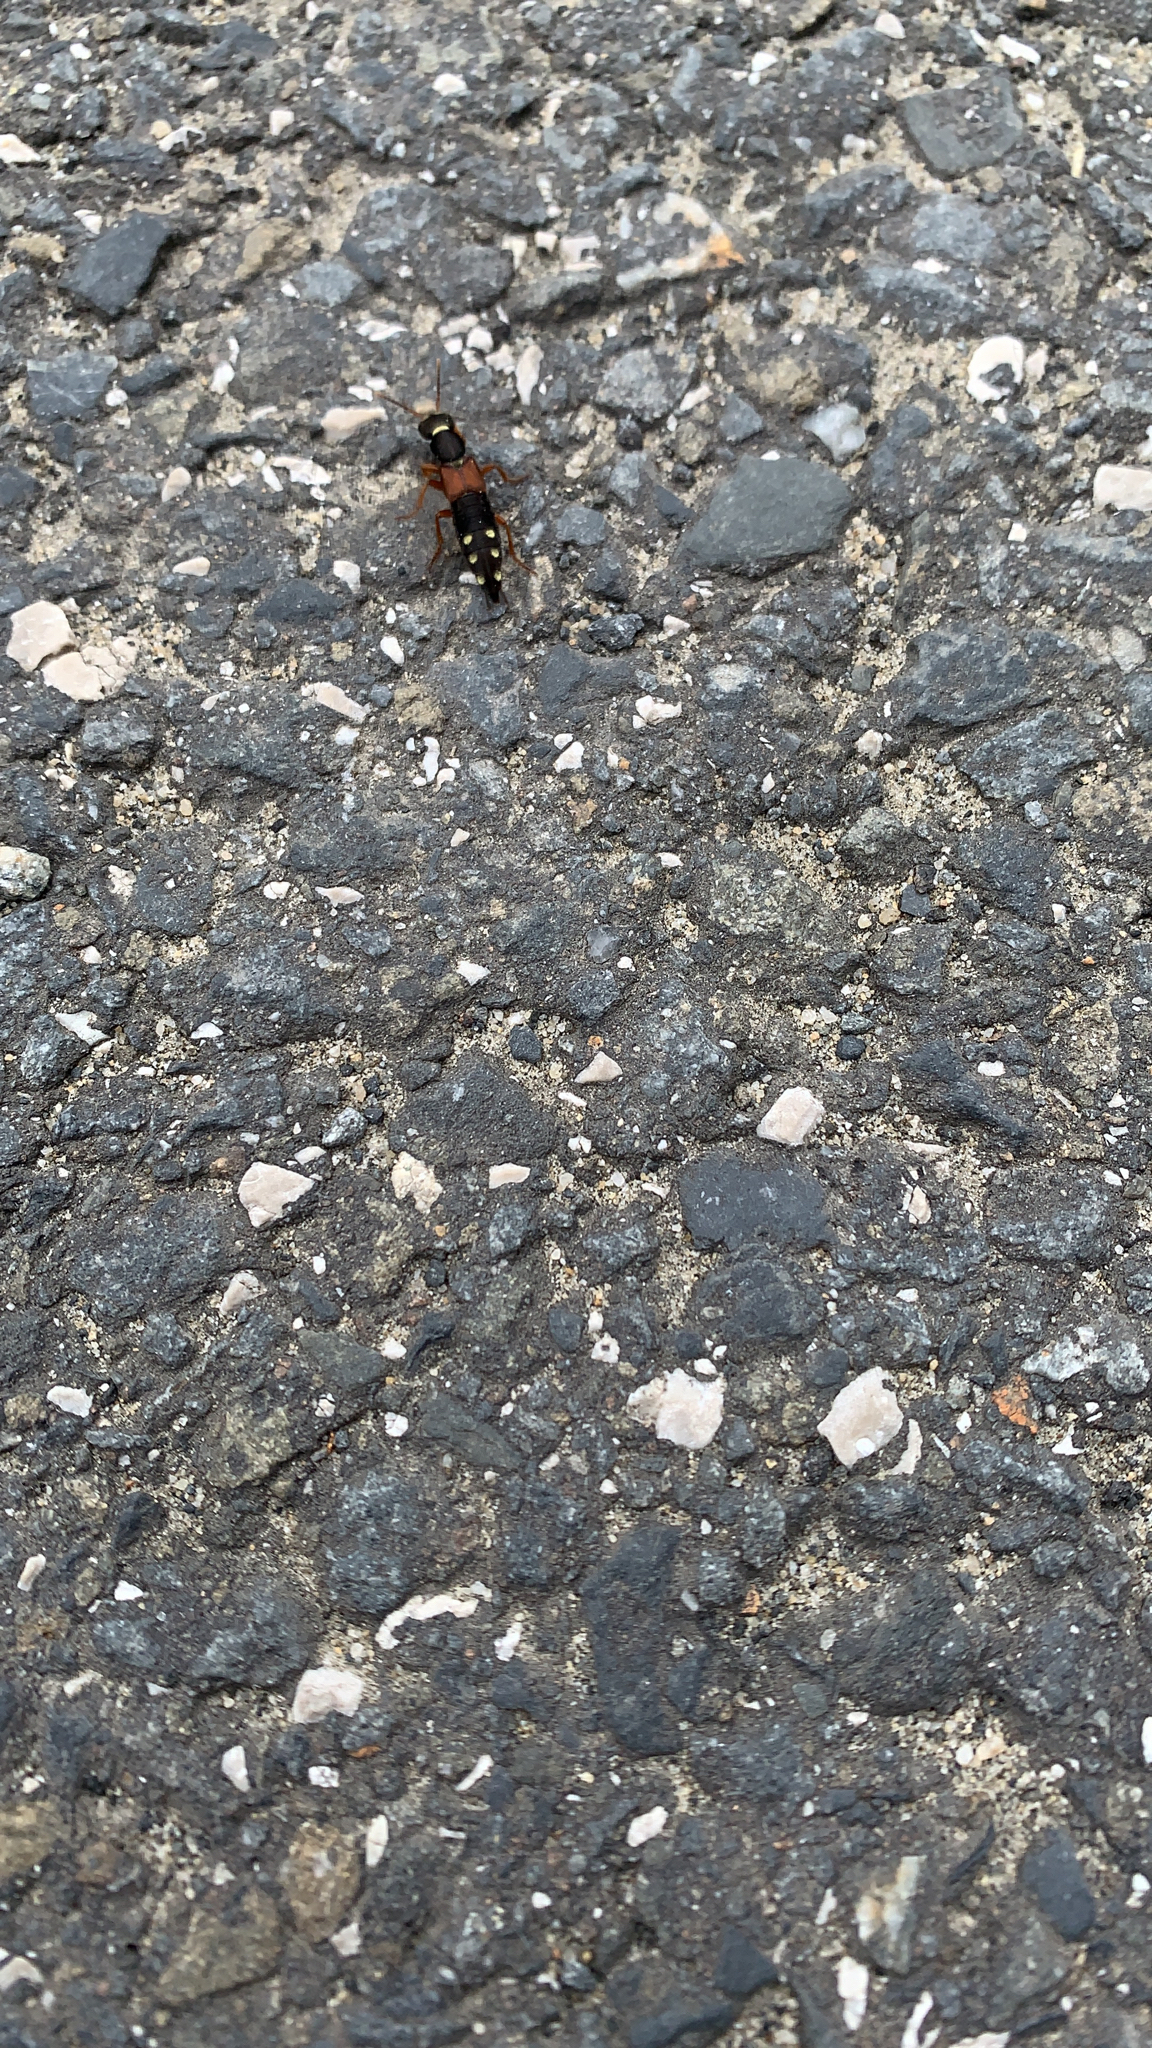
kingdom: Animalia
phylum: Arthropoda
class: Insecta
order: Coleoptera
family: Staphylinidae
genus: Staphylinus
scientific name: Staphylinus erythropterus
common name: Staph beetle
